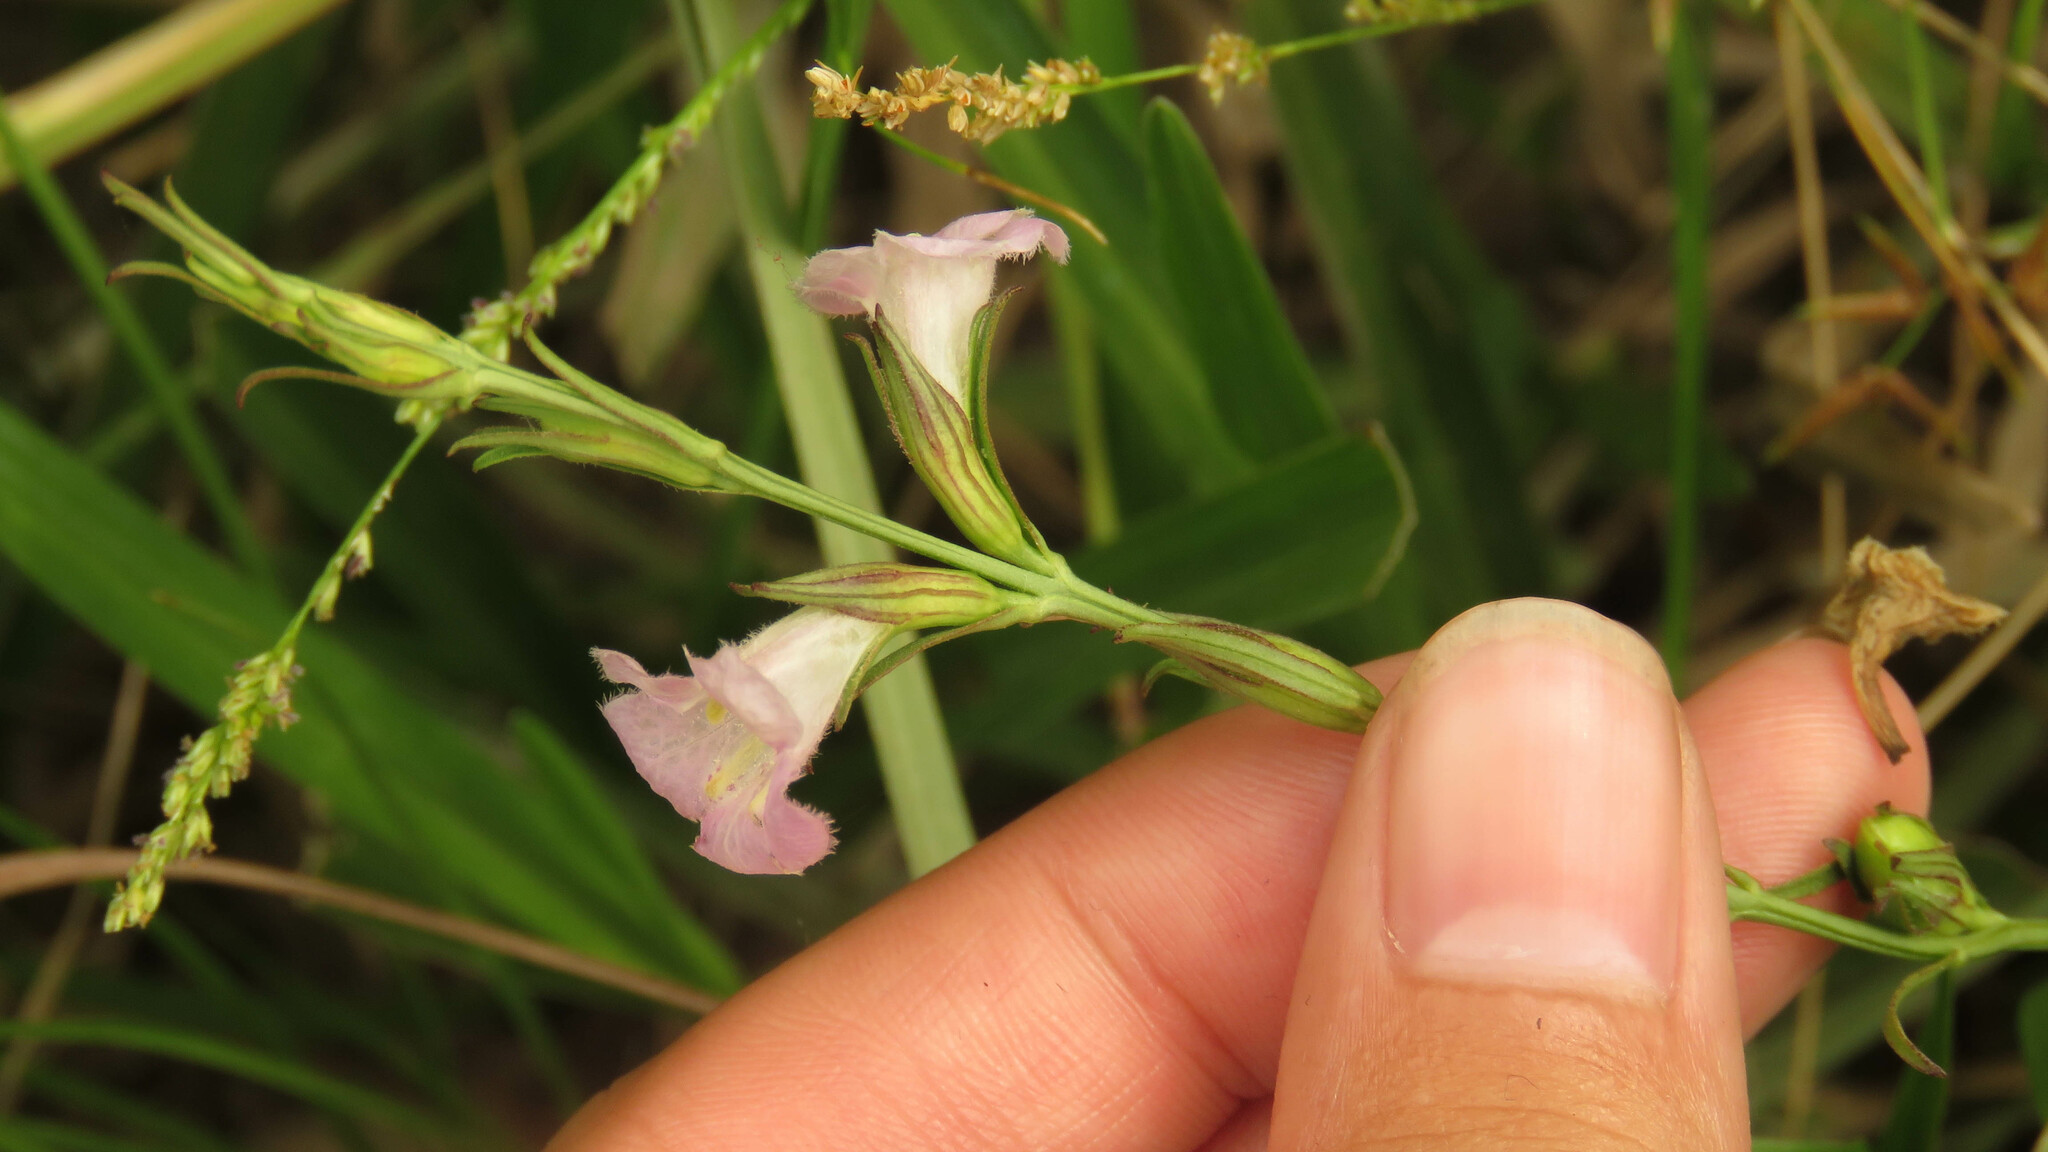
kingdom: Plantae
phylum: Tracheophyta
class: Magnoliopsida
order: Lamiales
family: Orobanchaceae
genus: Agalinis
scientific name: Agalinis communis
